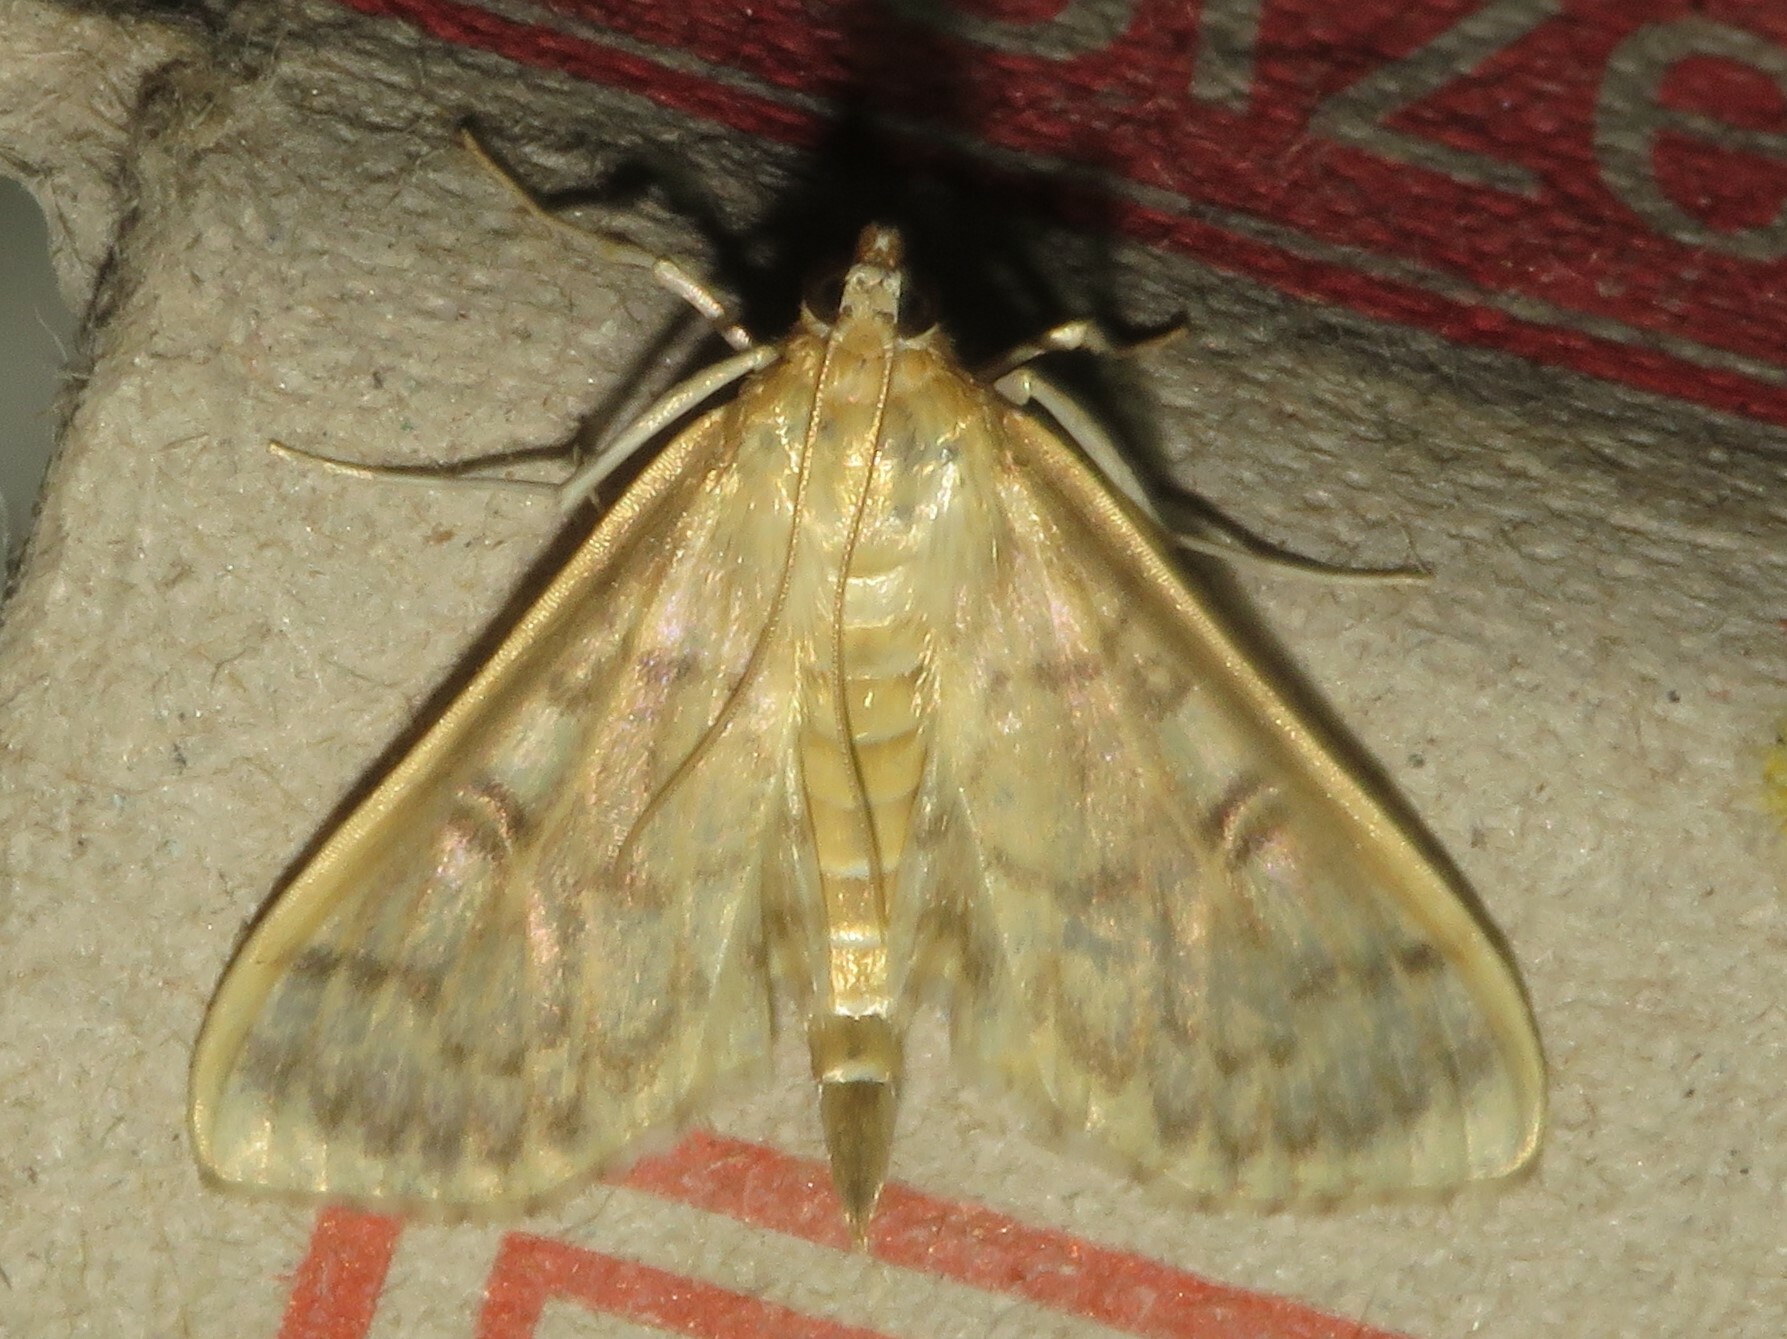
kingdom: Animalia
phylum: Arthropoda
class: Insecta
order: Lepidoptera
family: Crambidae
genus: Herpetogramma
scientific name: Herpetogramma pertextalis
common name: Bold-feathered grass moth
